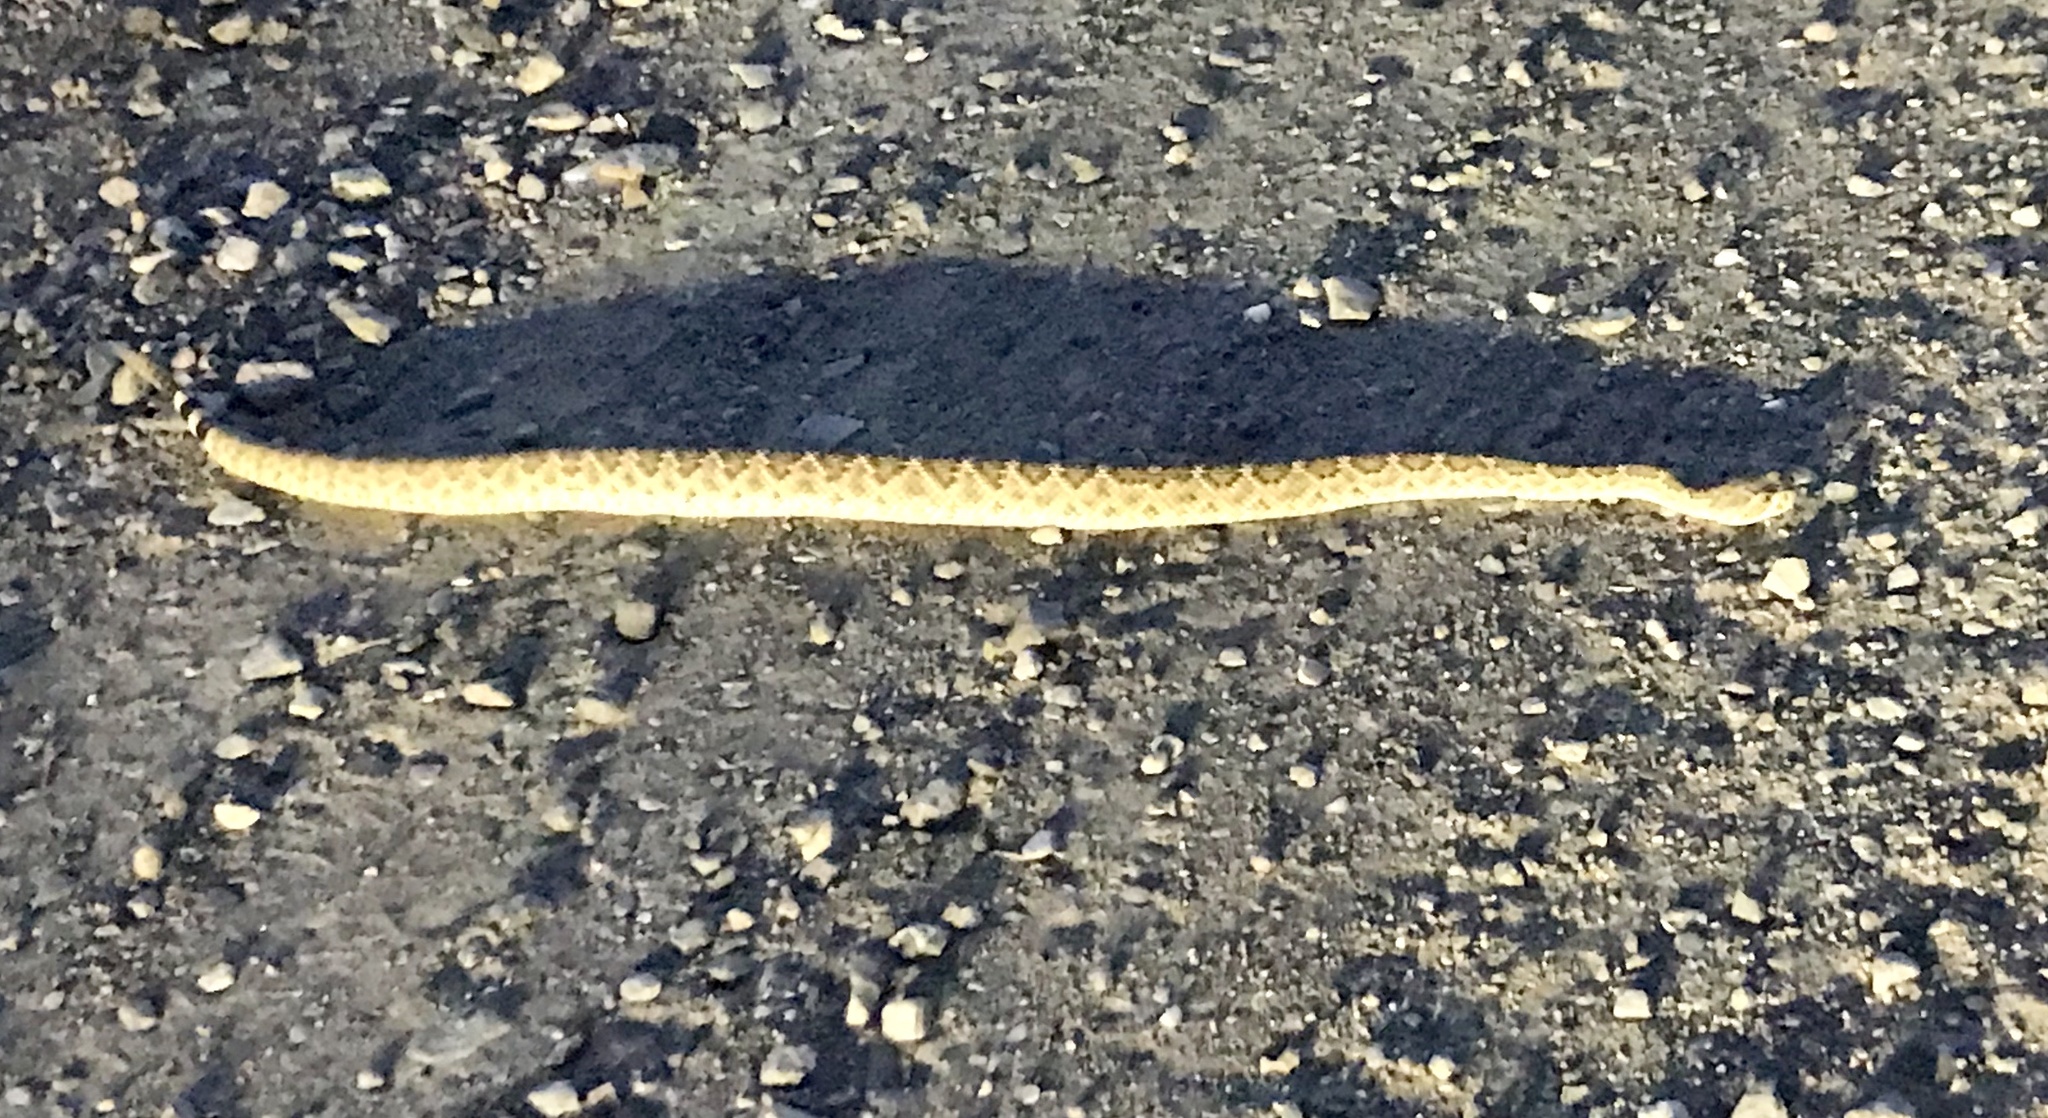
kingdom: Animalia
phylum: Chordata
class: Squamata
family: Viperidae
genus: Crotalus
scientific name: Crotalus atrox
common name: Western diamond-backed rattlesnake
